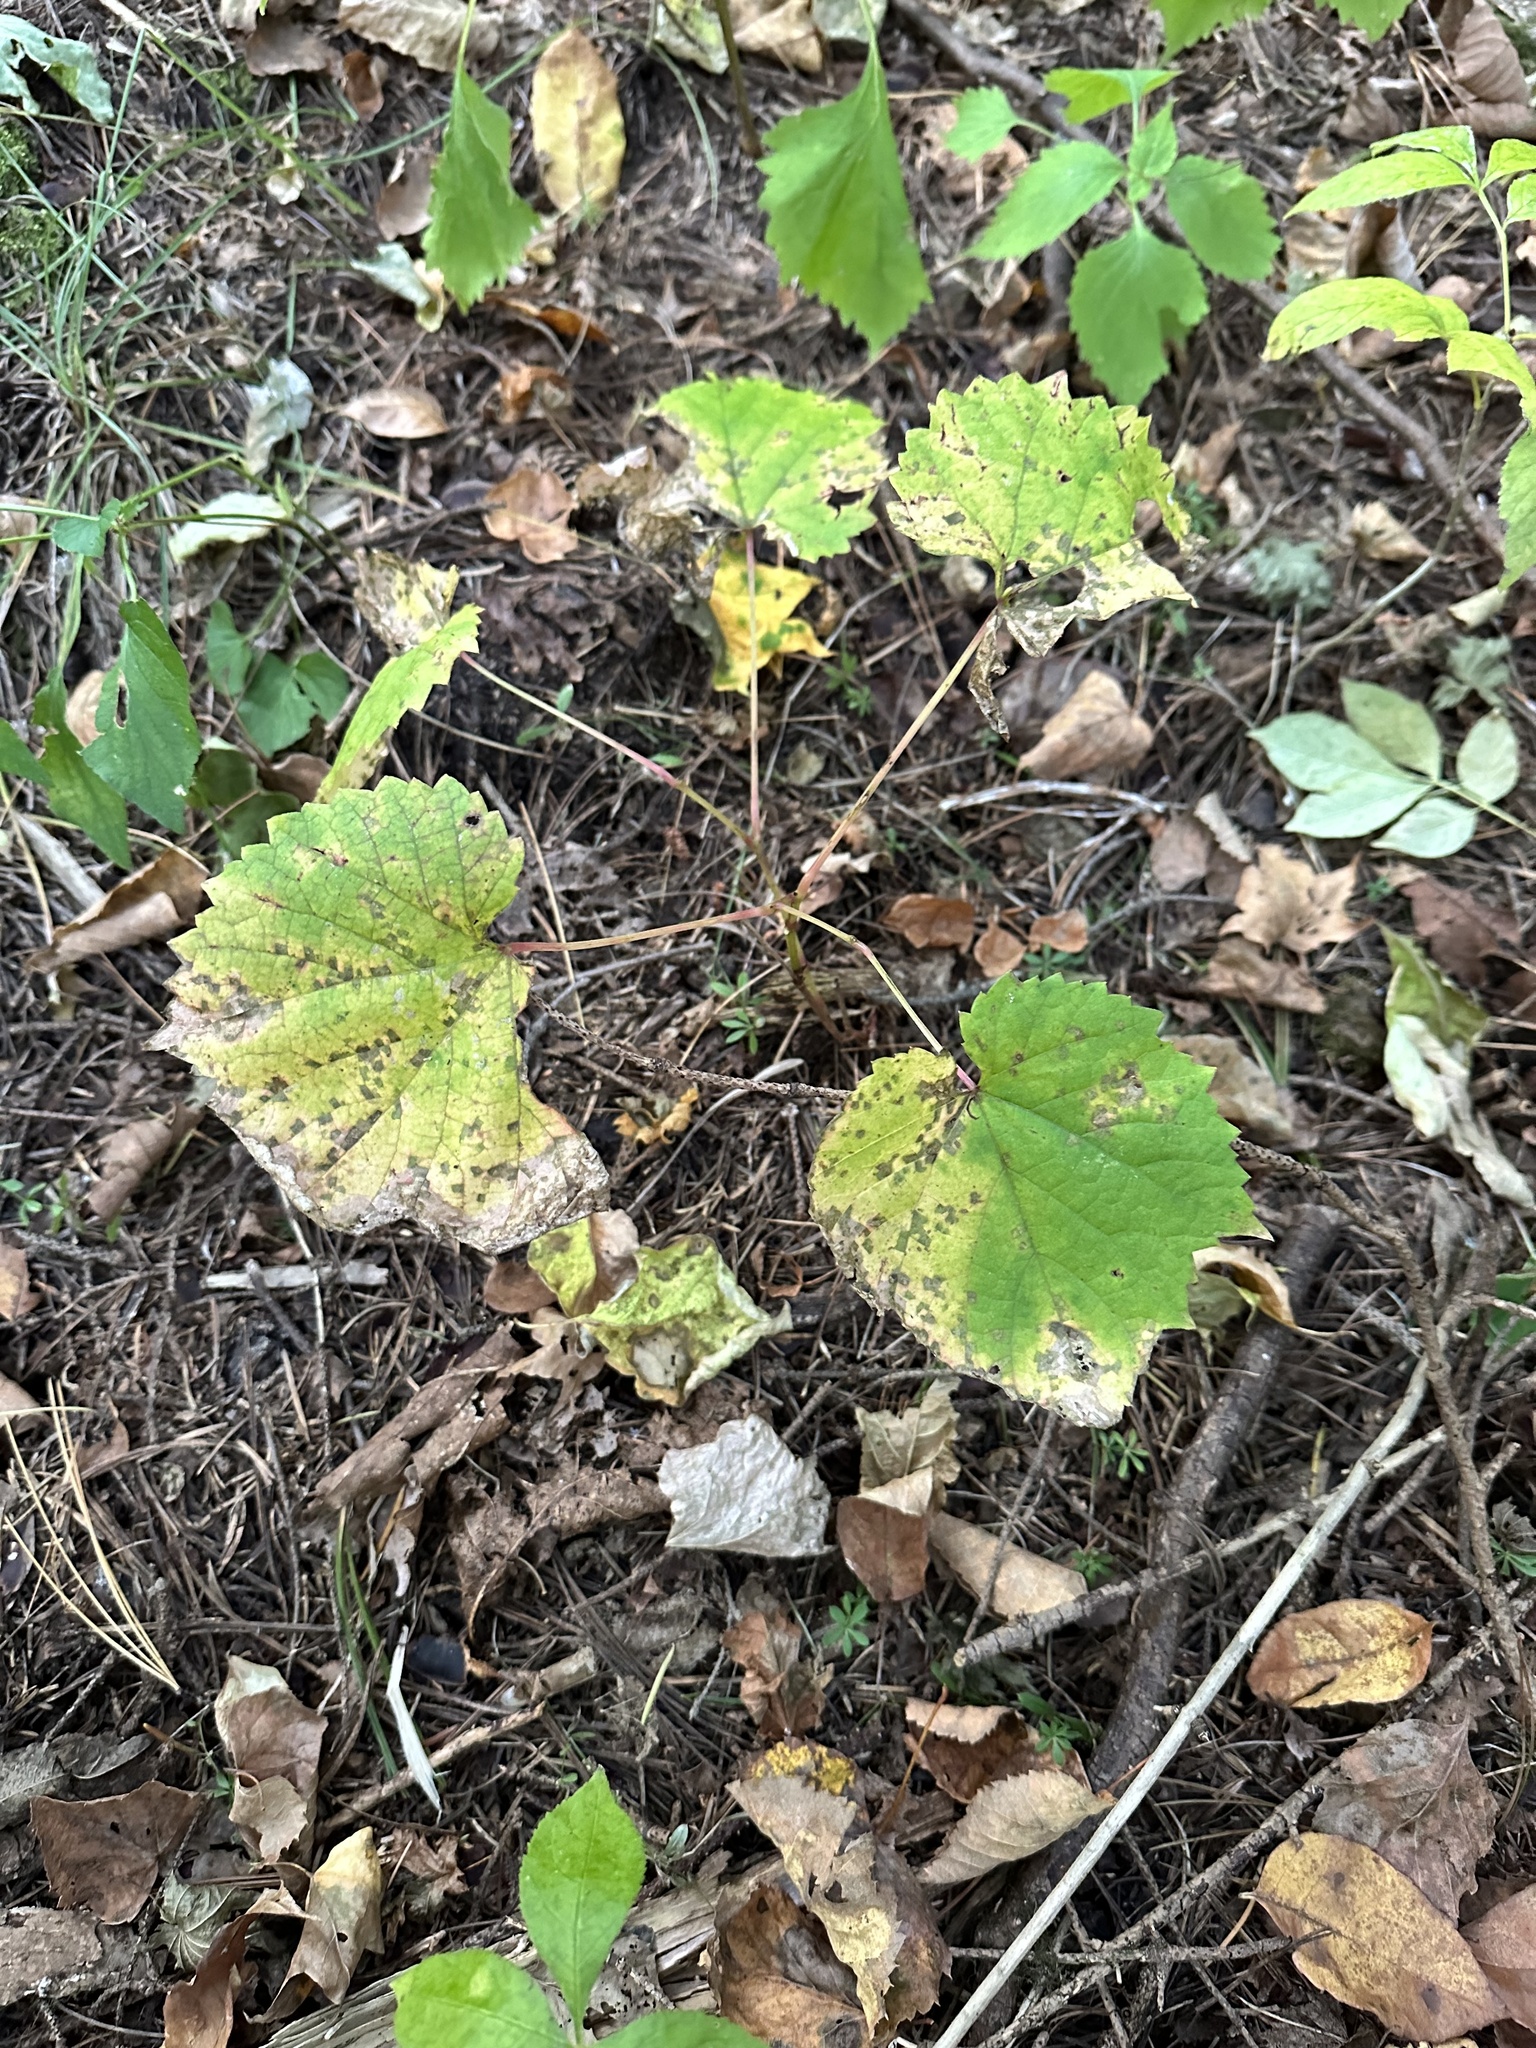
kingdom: Plantae
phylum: Tracheophyta
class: Magnoliopsida
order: Vitales
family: Vitaceae
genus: Vitis
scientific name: Vitis amurensis
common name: Amur grape
